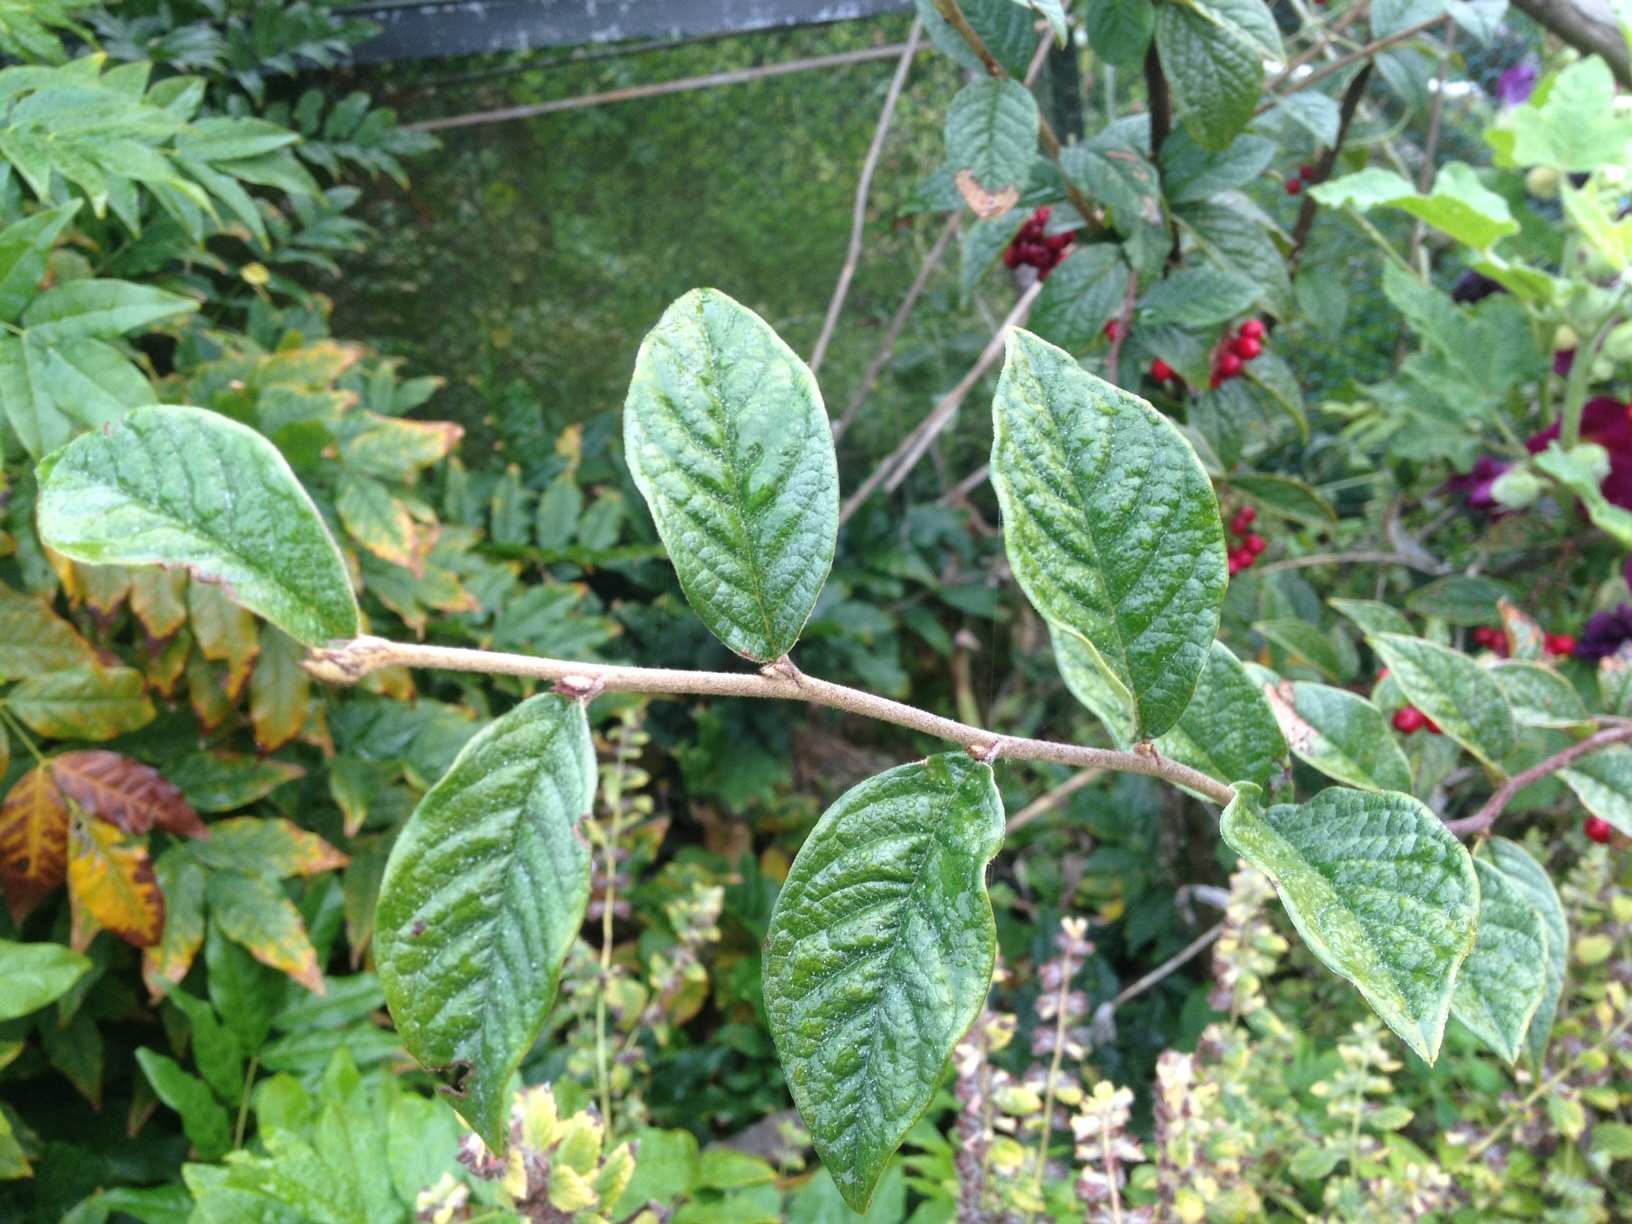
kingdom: Plantae
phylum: Tracheophyta
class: Magnoliopsida
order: Rosales
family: Rosaceae
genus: Cotoneaster
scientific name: Cotoneaster coriaceus
